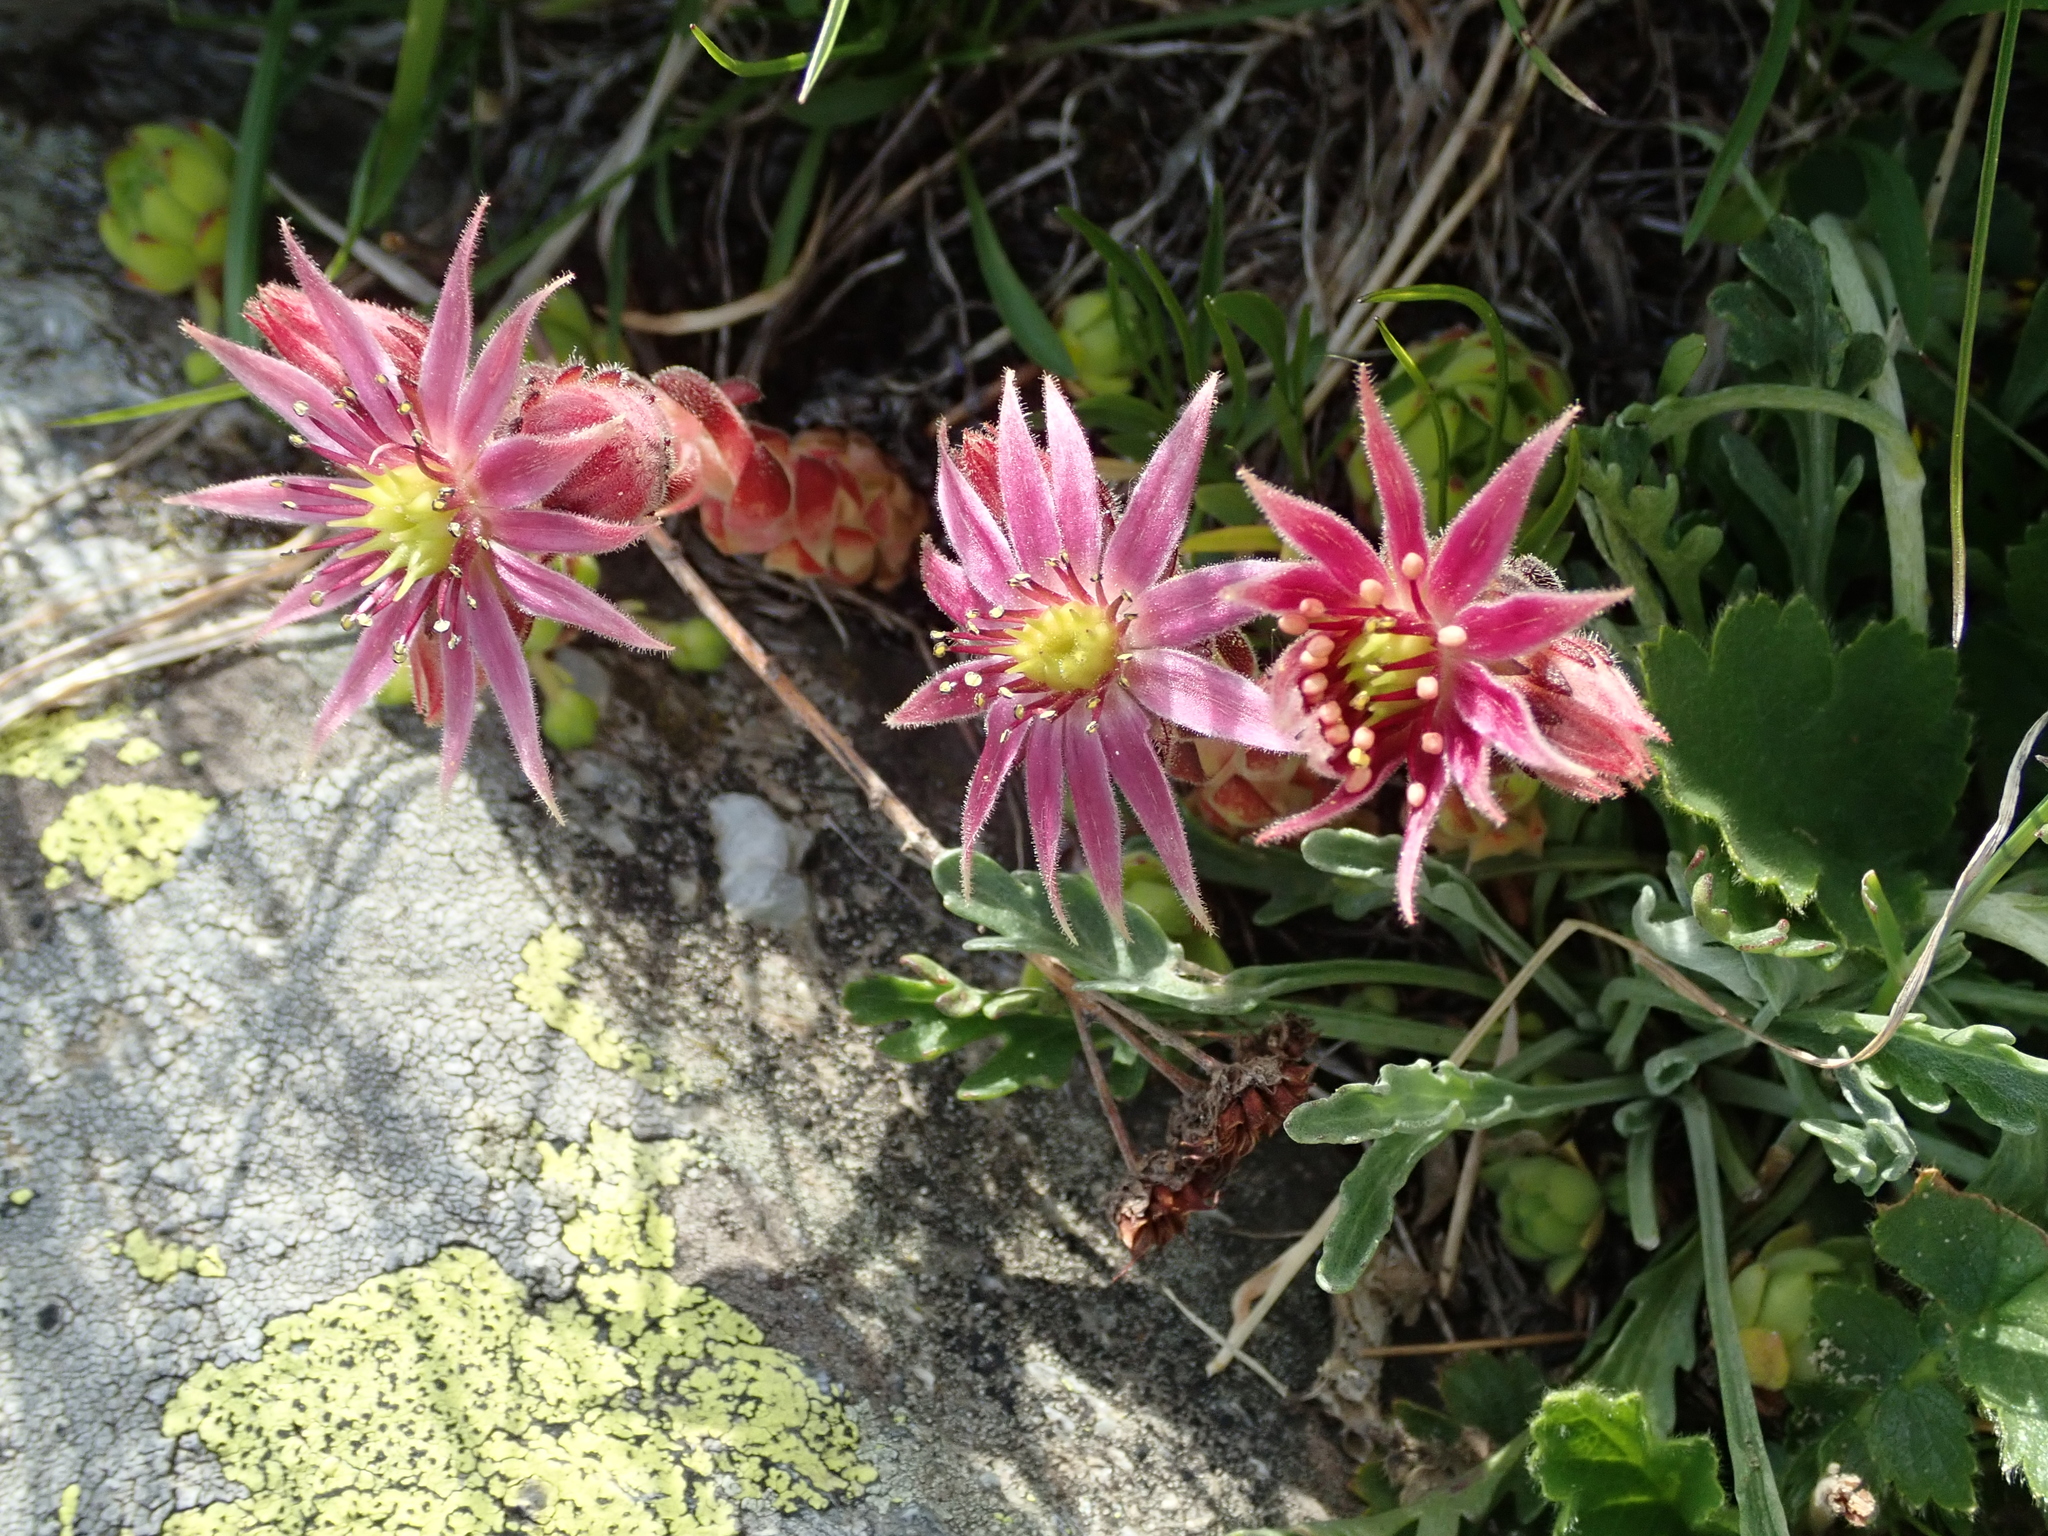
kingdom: Plantae
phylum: Tracheophyta
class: Magnoliopsida
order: Saxifragales
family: Crassulaceae
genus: Sempervivum
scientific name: Sempervivum montanum
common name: Mountain house-leek
